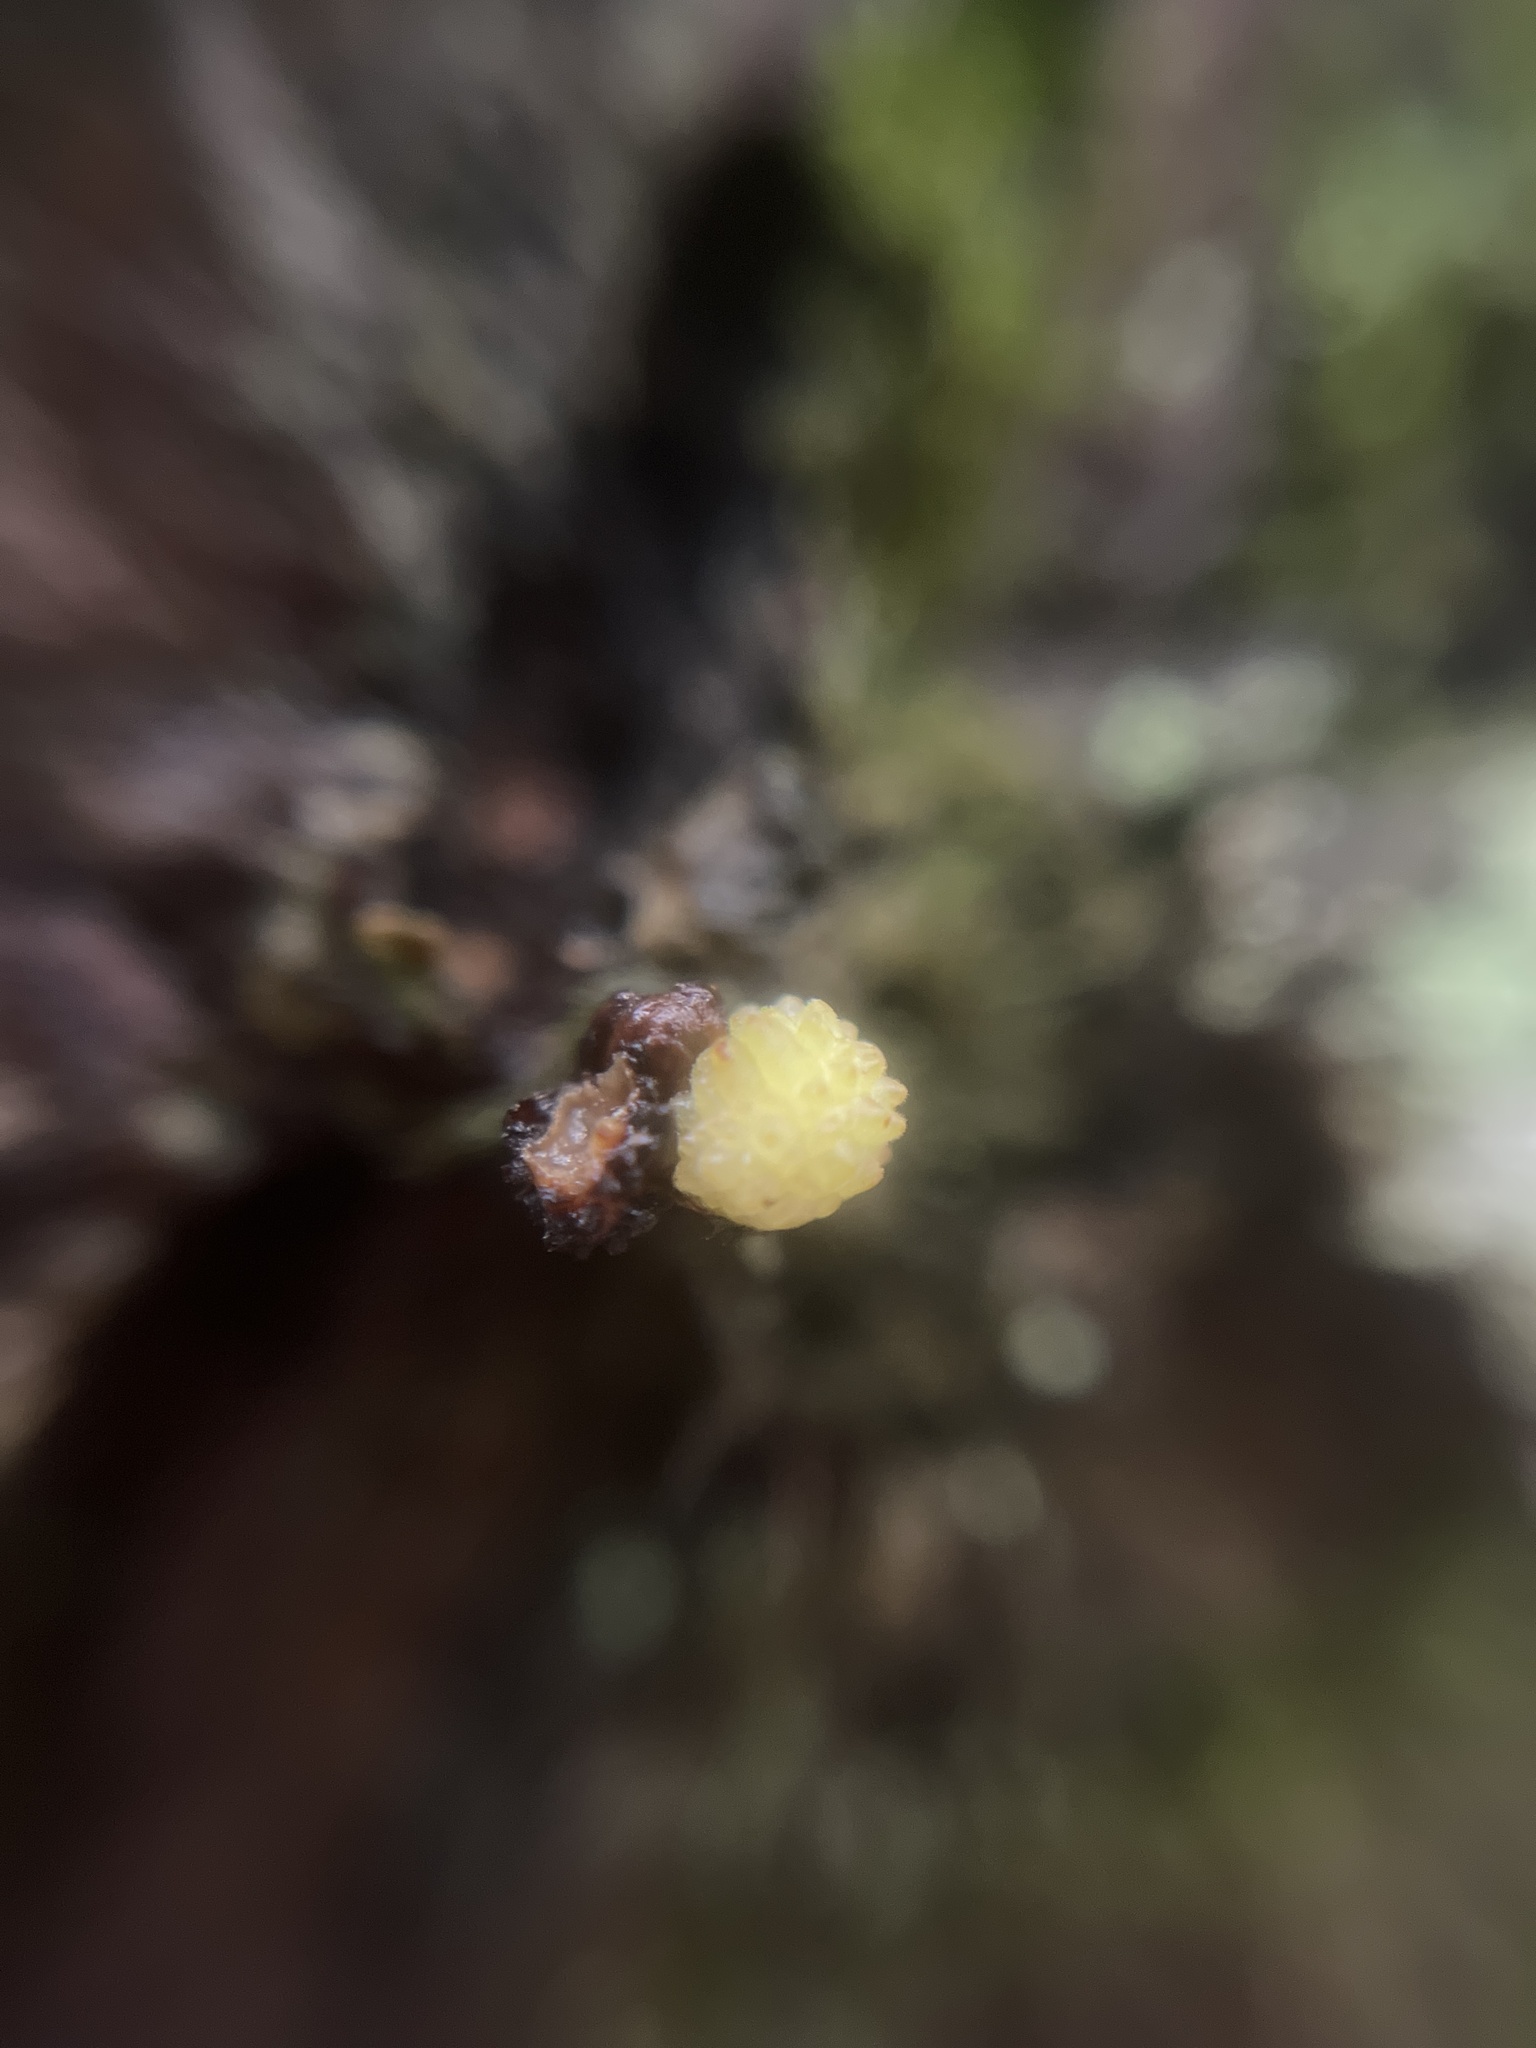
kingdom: Animalia
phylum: Arthropoda
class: Insecta
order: Hymenoptera
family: Cynipidae
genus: Andricus
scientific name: Andricus gemmeus
